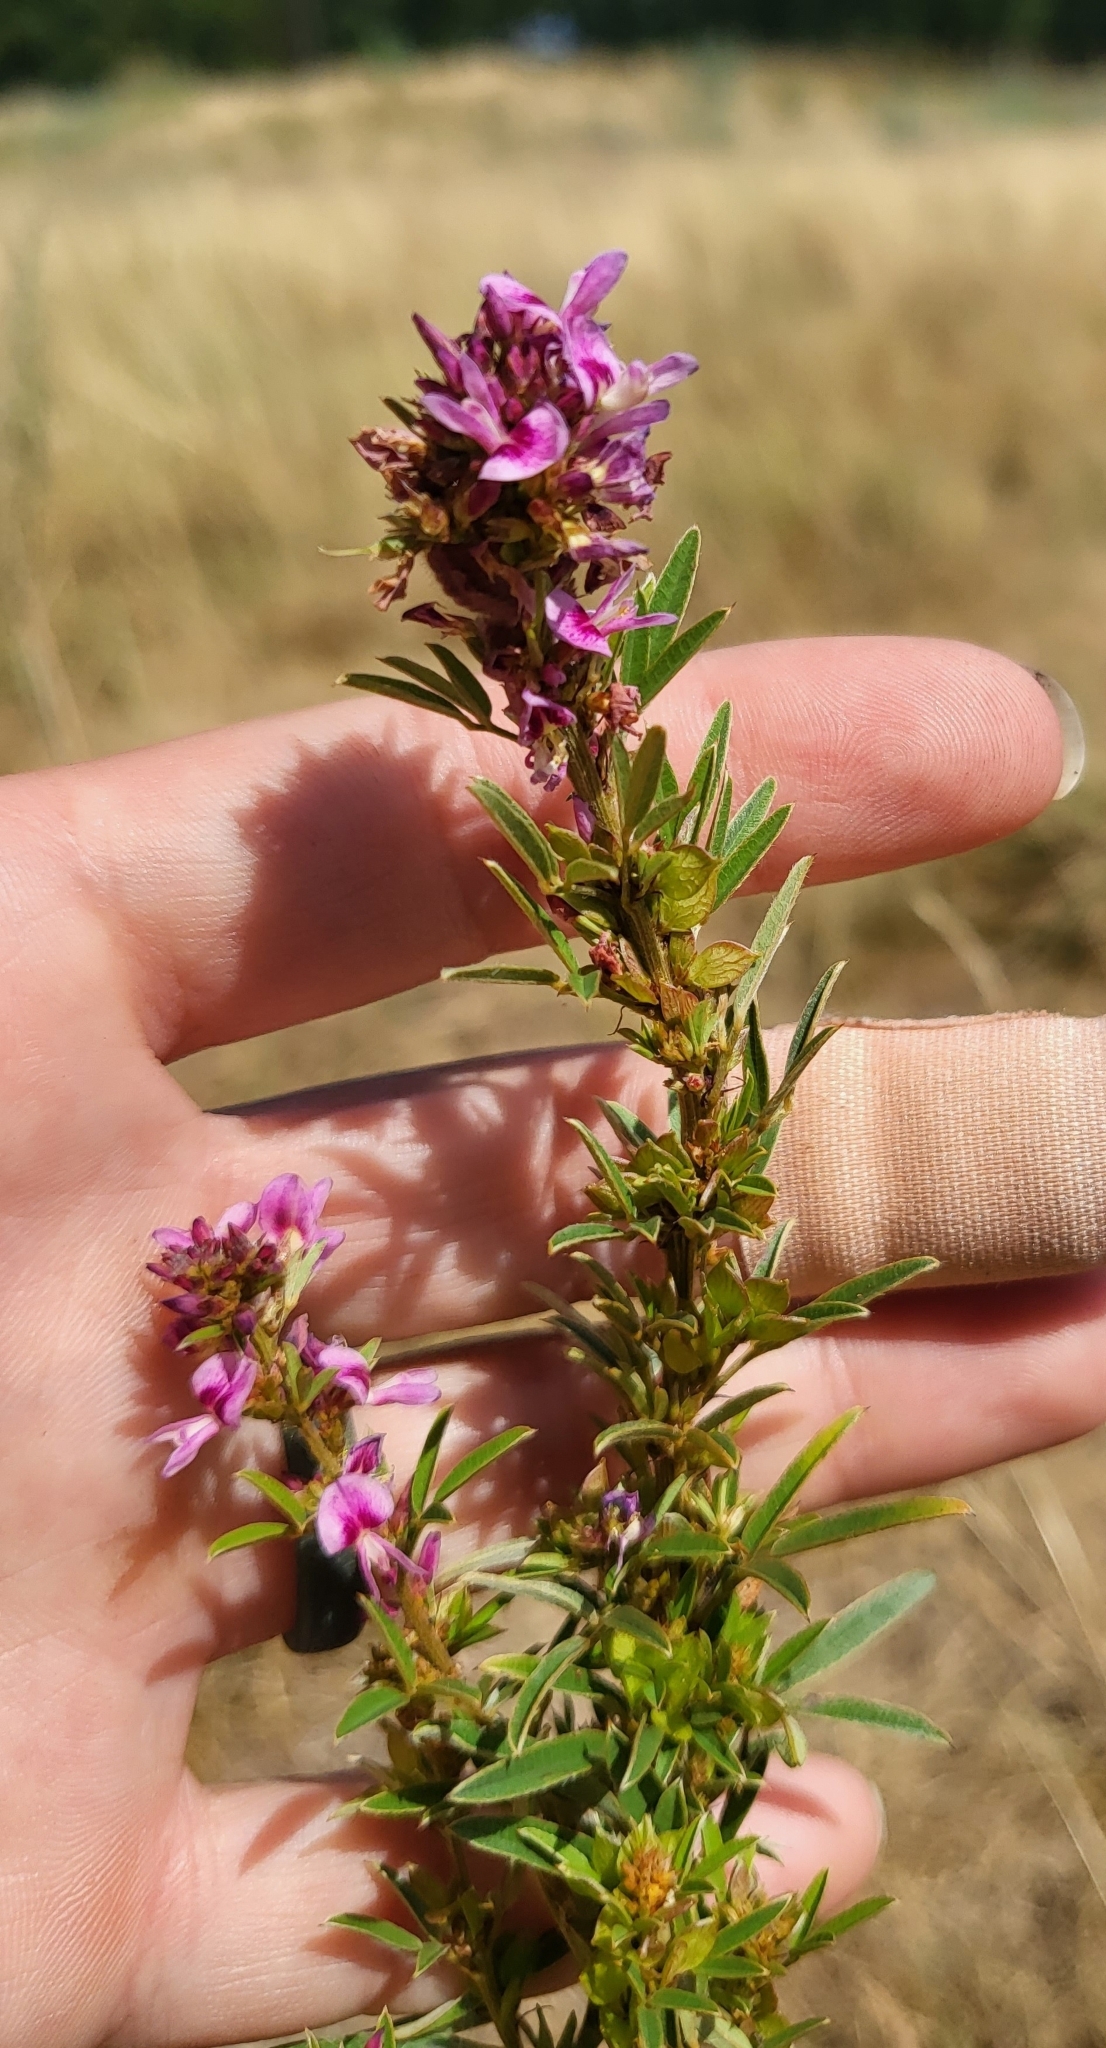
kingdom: Plantae
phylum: Tracheophyta
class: Magnoliopsida
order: Fabales
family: Fabaceae
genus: Lespedeza
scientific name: Lespedeza virginica
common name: Slender bush-clover
